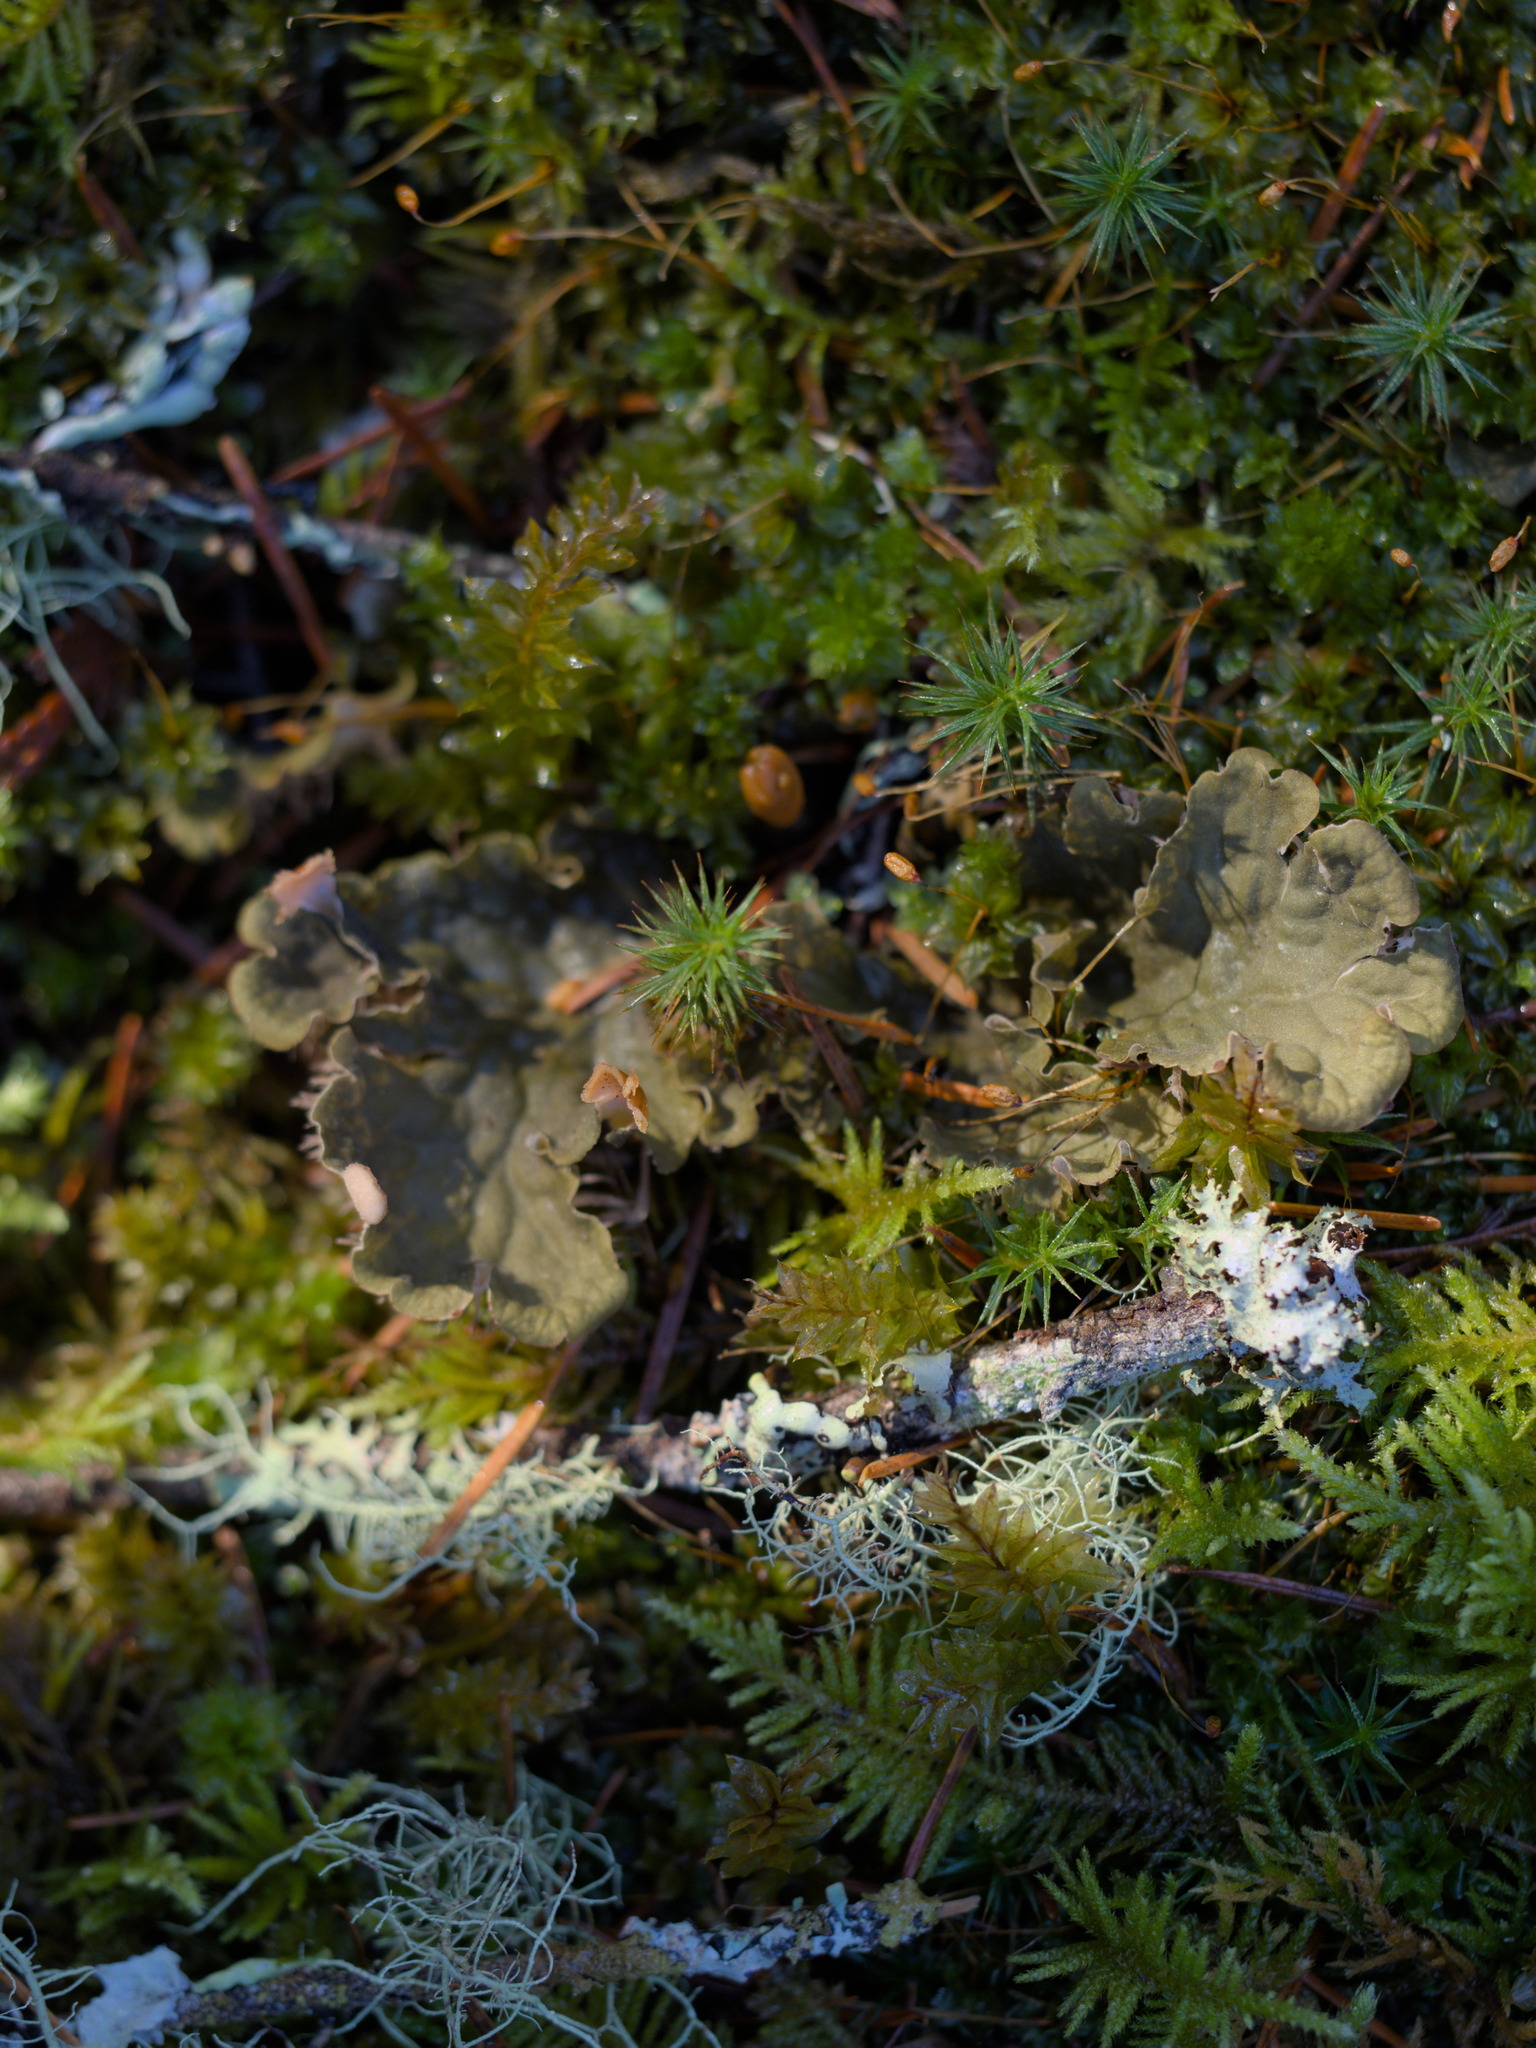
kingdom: Fungi
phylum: Ascomycota
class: Lecanoromycetes
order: Peltigerales
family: Peltigeraceae
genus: Peltigera
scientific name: Peltigera membranacea
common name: Membranous pelt lichen
